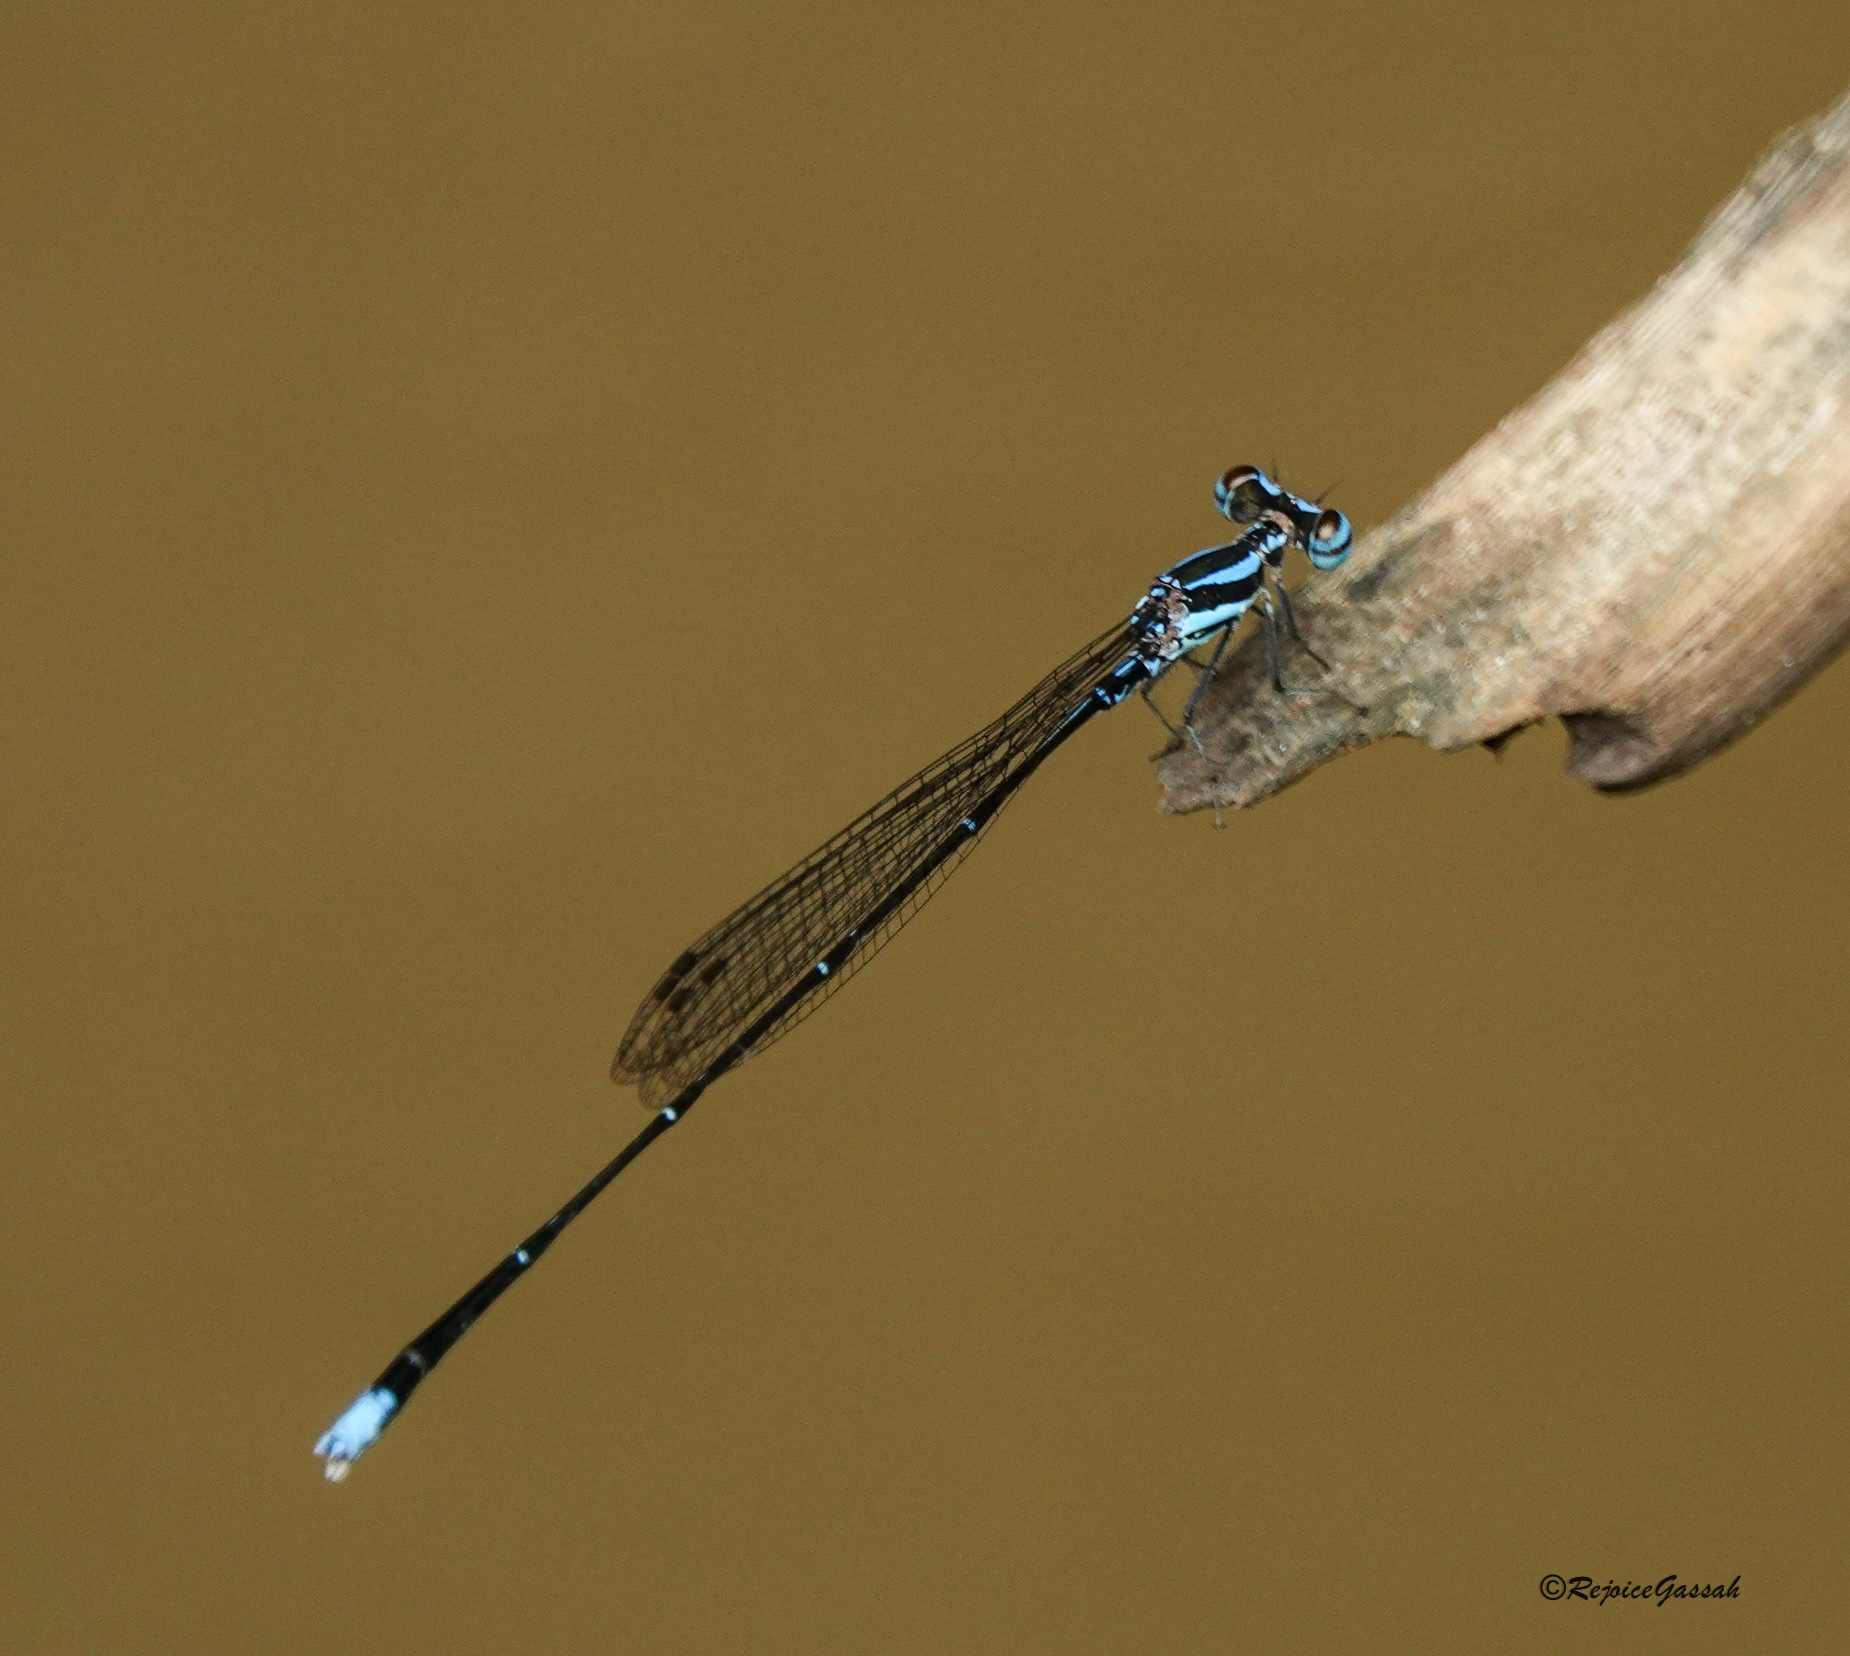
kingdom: Animalia
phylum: Arthropoda
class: Insecta
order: Odonata
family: Platycnemididae
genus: Elattoneura
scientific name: Elattoneura campioni
